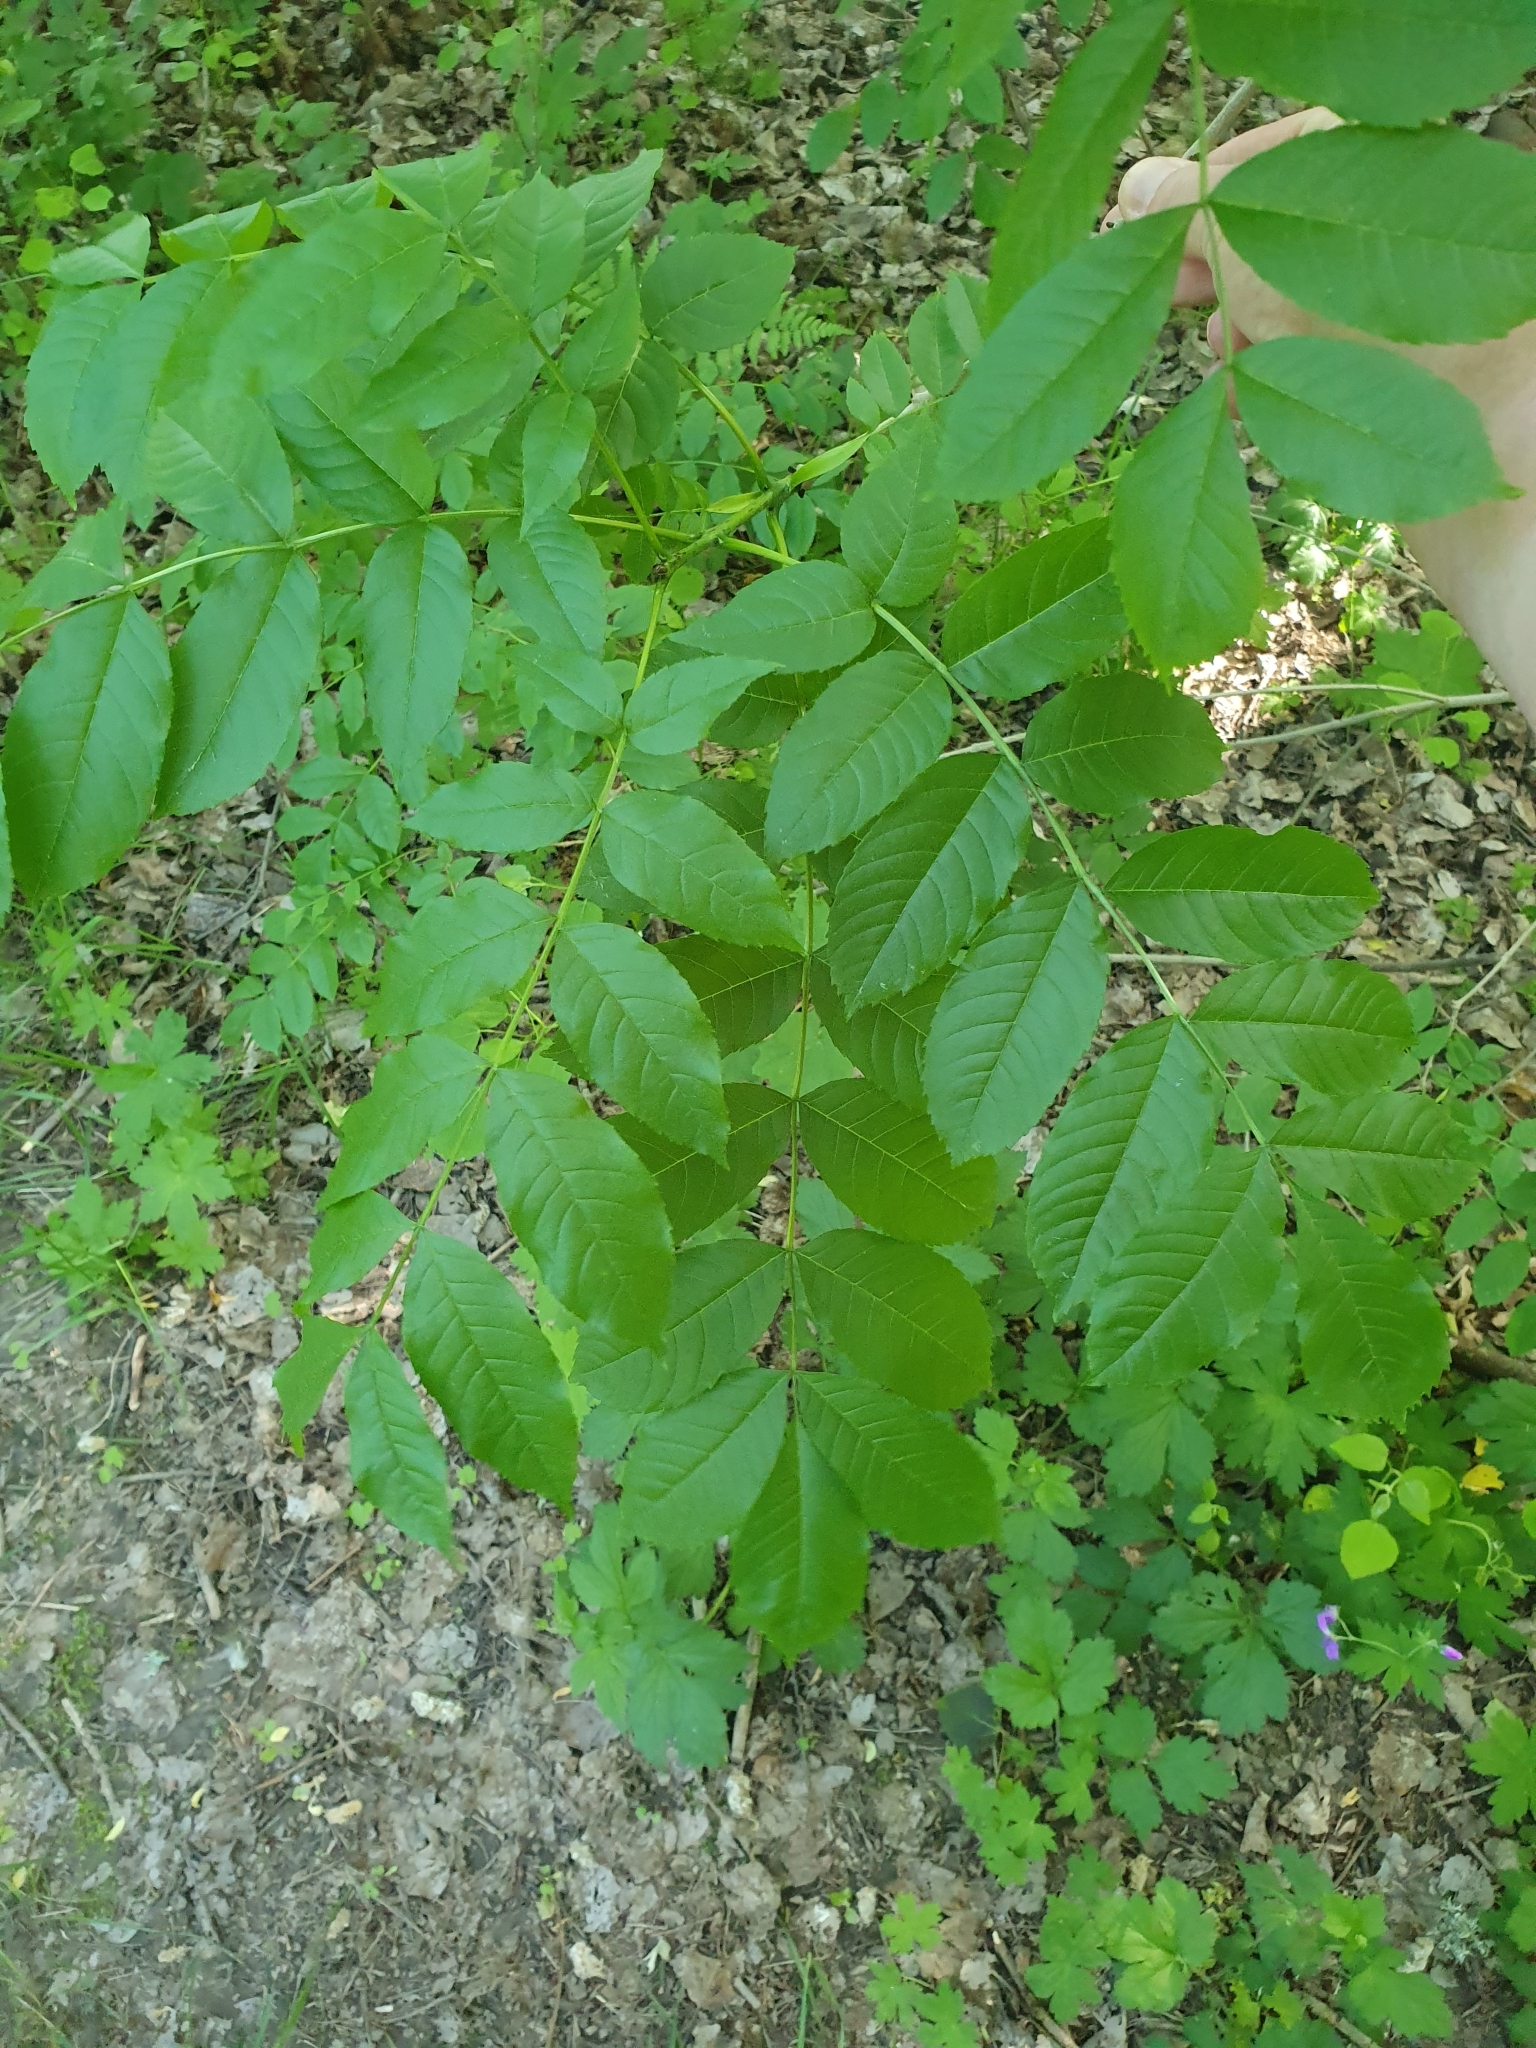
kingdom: Plantae
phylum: Tracheophyta
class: Magnoliopsida
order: Lamiales
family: Oleaceae
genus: Fraxinus
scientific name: Fraxinus excelsior
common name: European ash
